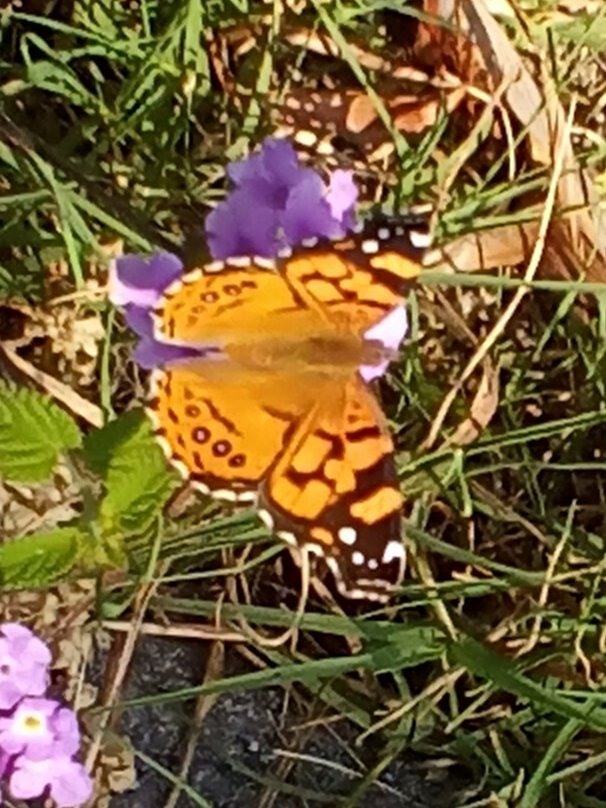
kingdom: Animalia
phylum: Arthropoda
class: Insecta
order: Lepidoptera
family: Nymphalidae
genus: Vanessa
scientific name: Vanessa annabella
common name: West coast lady
